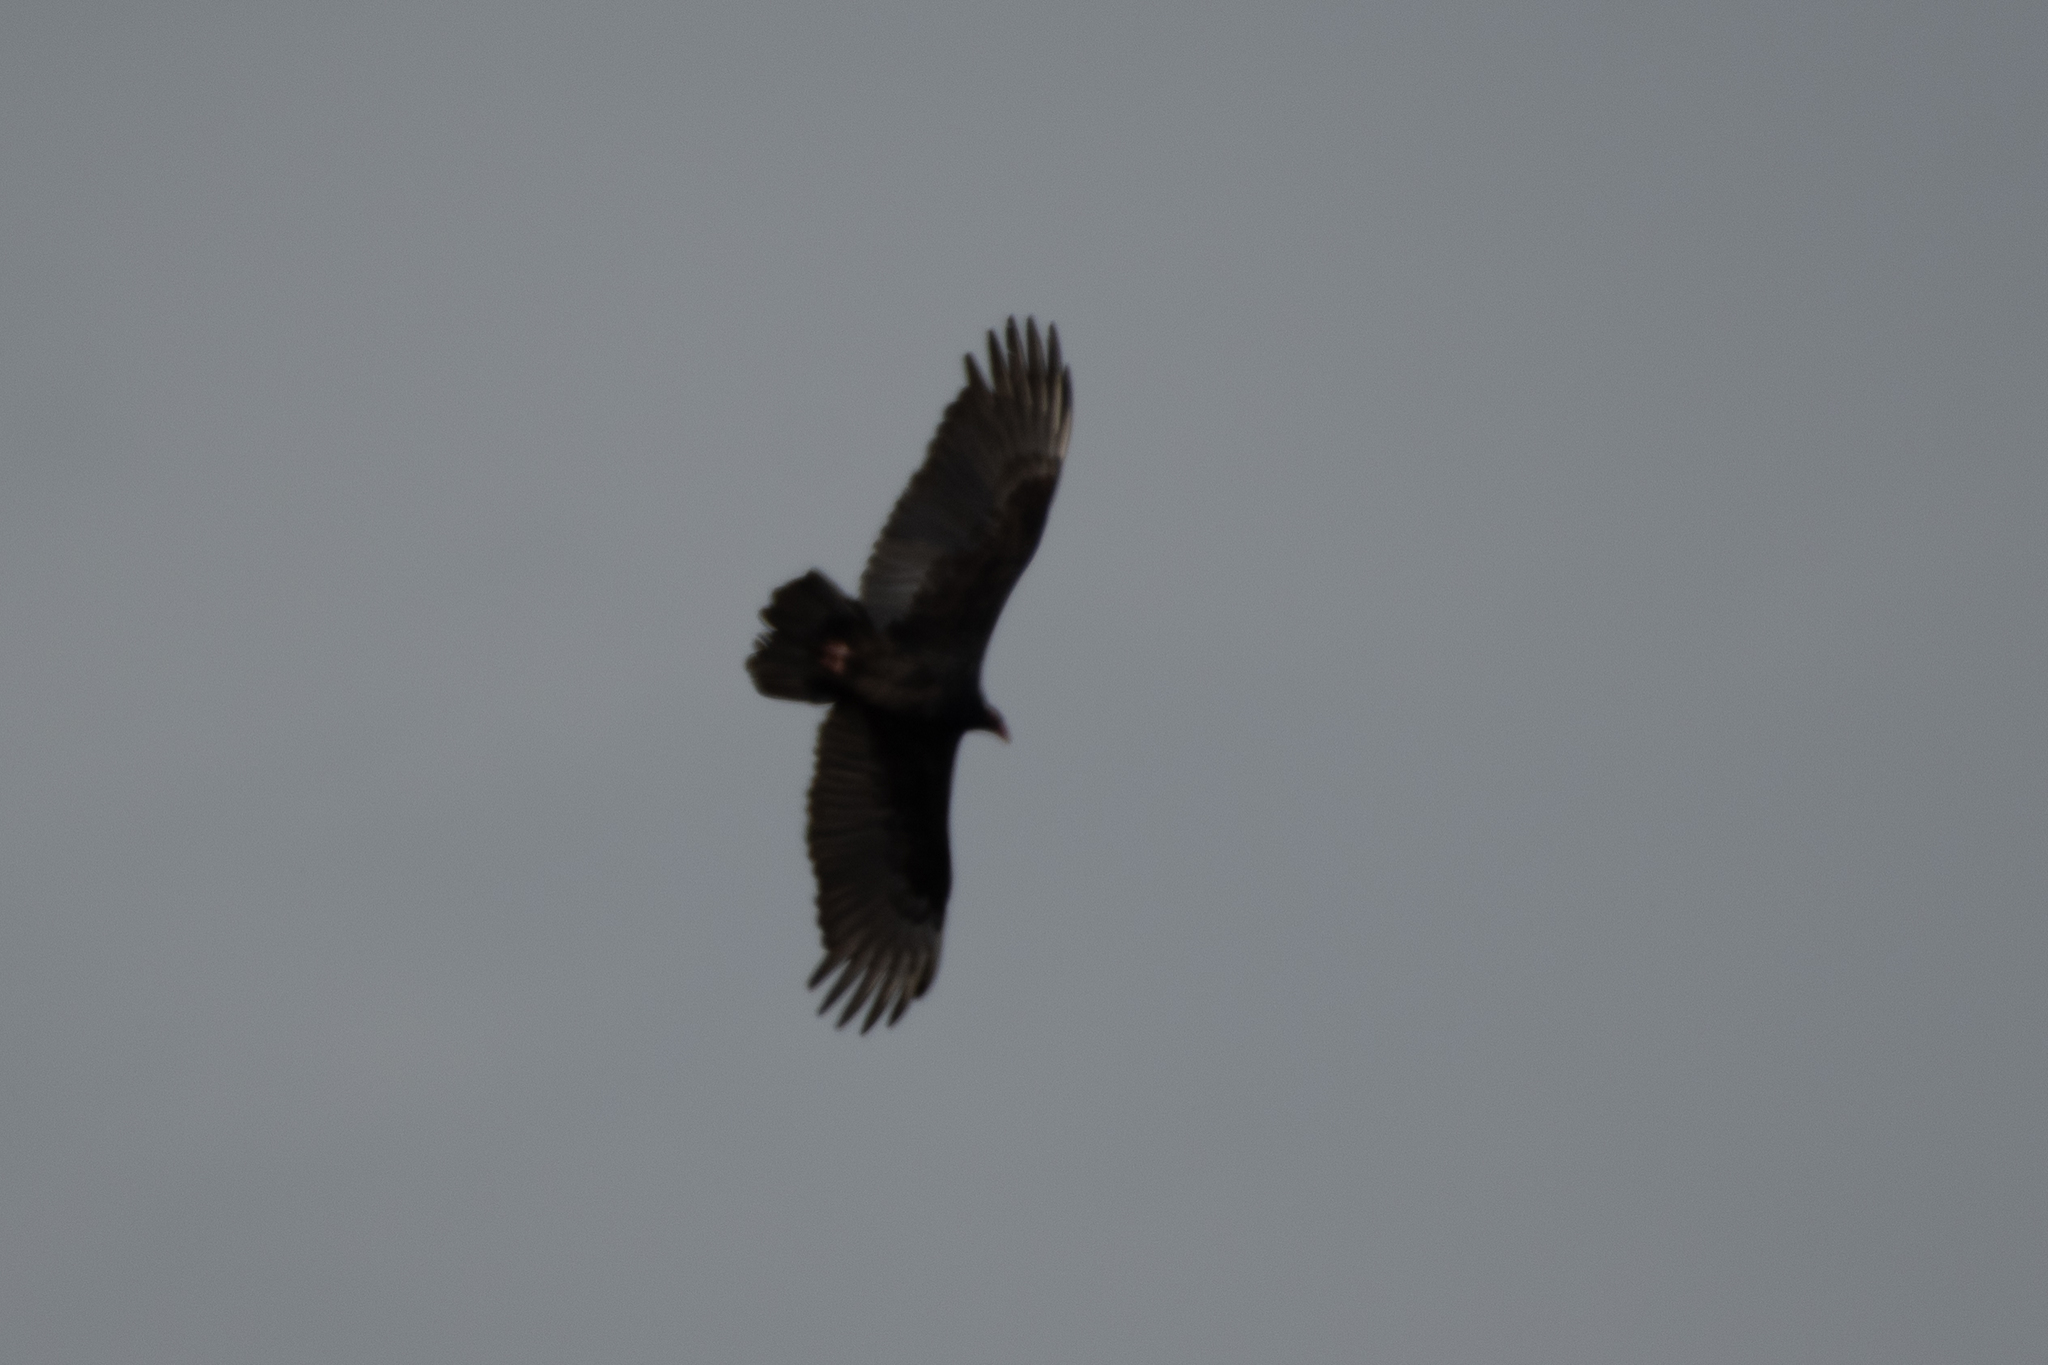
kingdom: Animalia
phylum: Chordata
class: Aves
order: Accipitriformes
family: Cathartidae
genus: Cathartes
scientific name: Cathartes aura
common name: Turkey vulture
